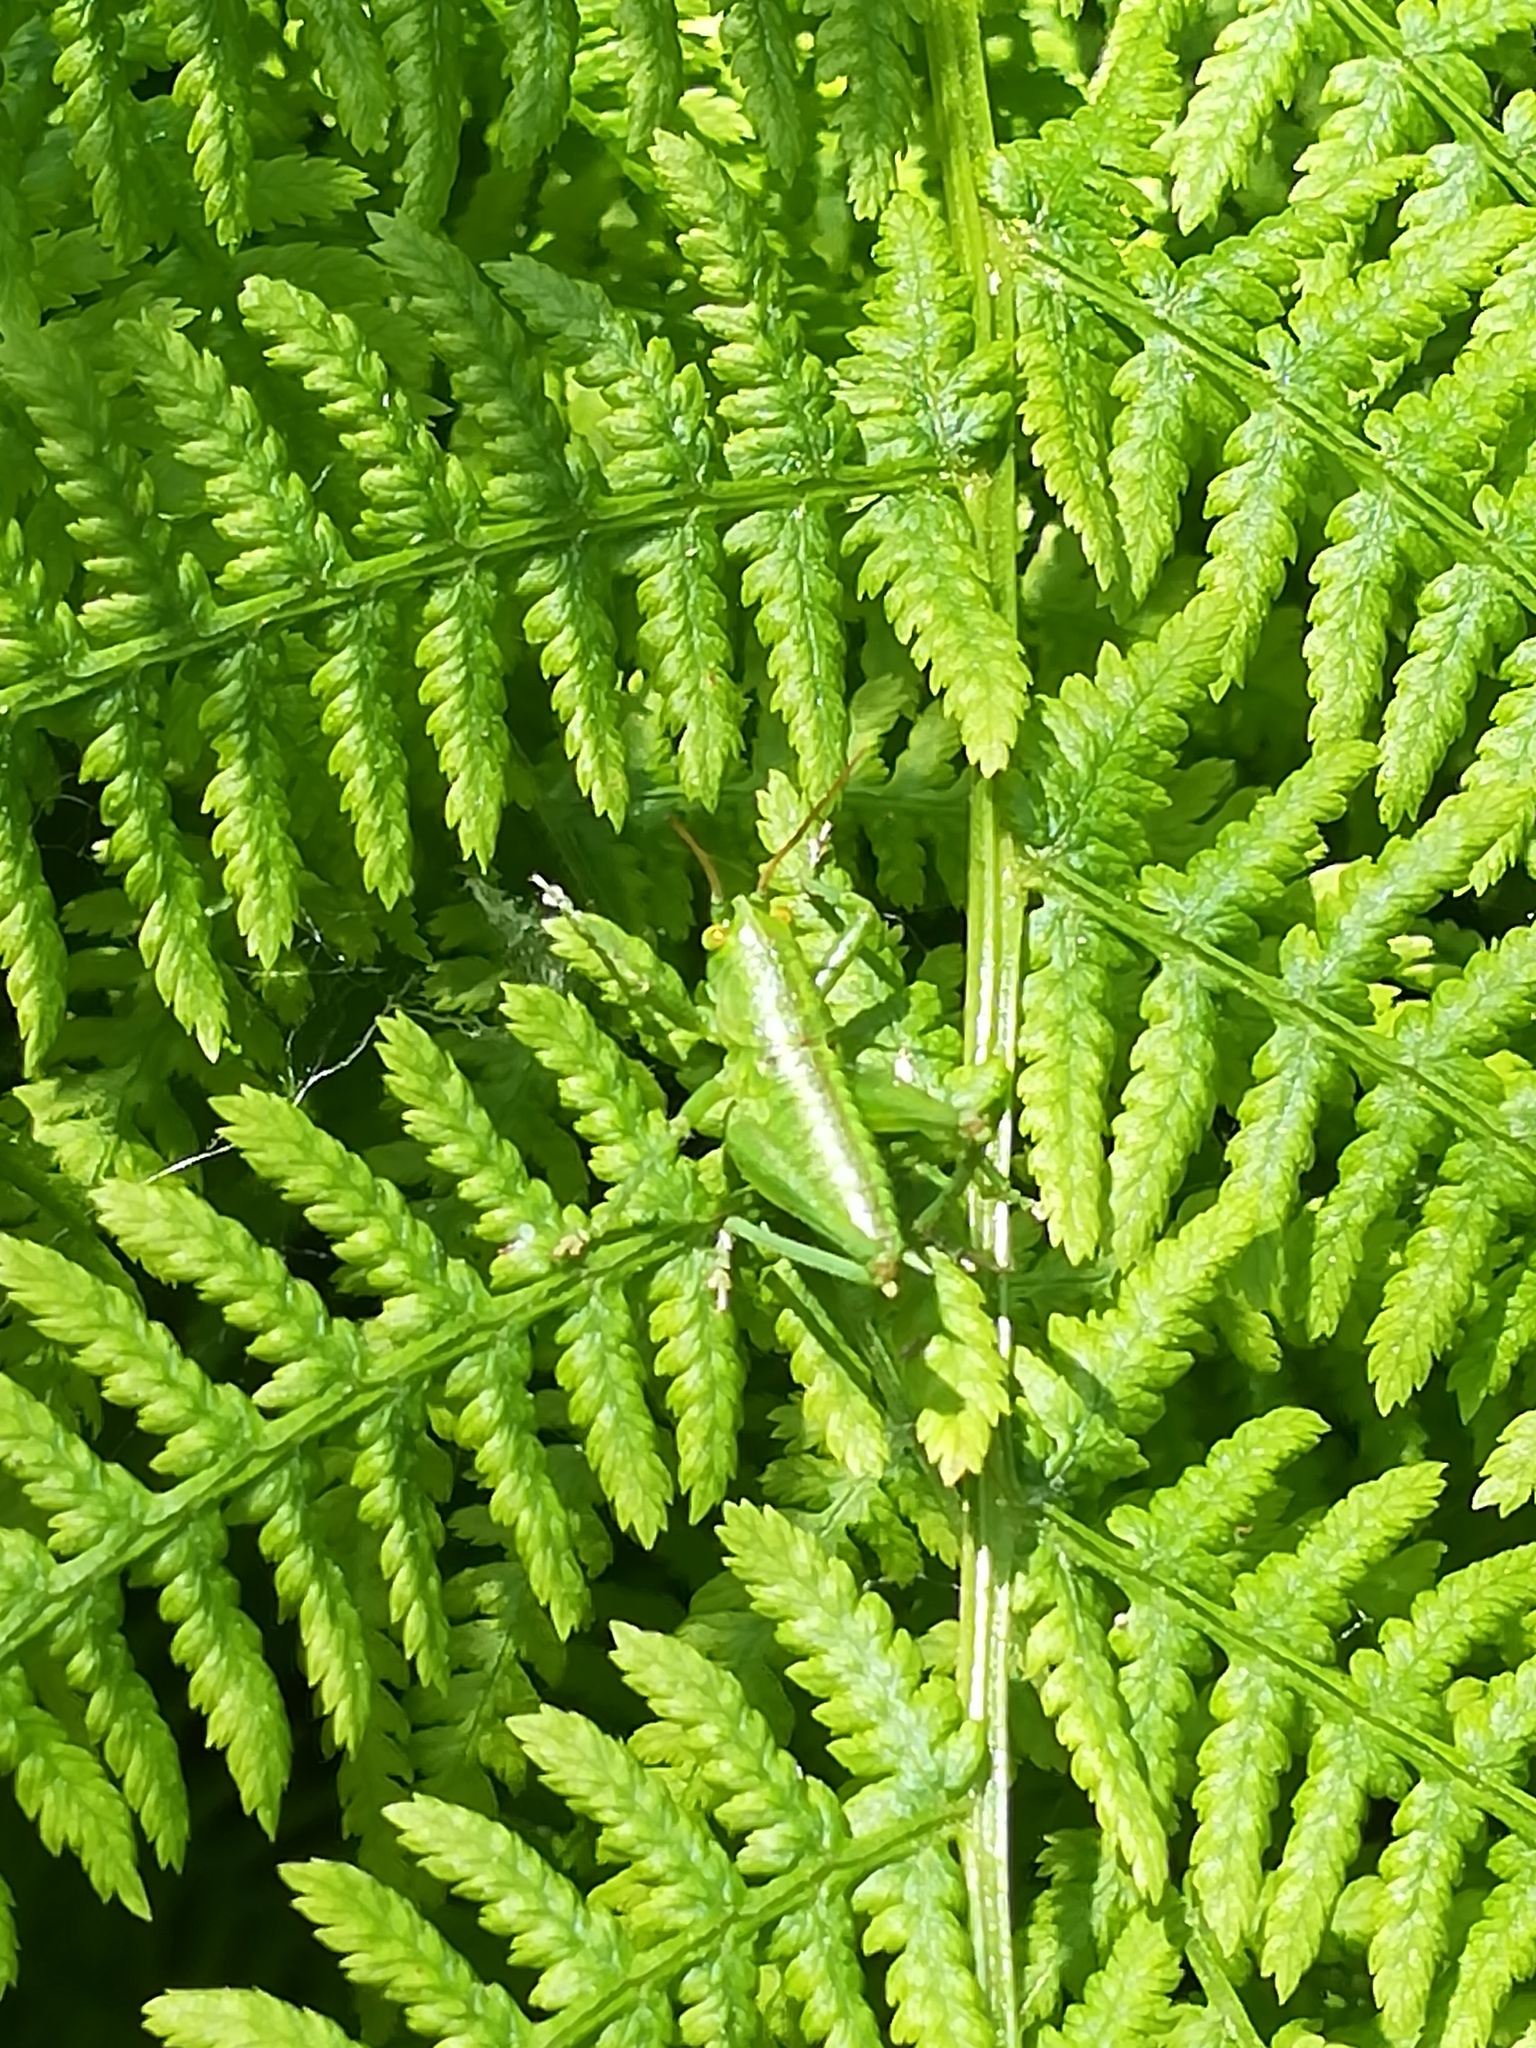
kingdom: Animalia
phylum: Arthropoda
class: Insecta
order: Orthoptera
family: Tettigoniidae
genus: Tettigonia
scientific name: Tettigonia viridissima
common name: Great green bush-cricket
